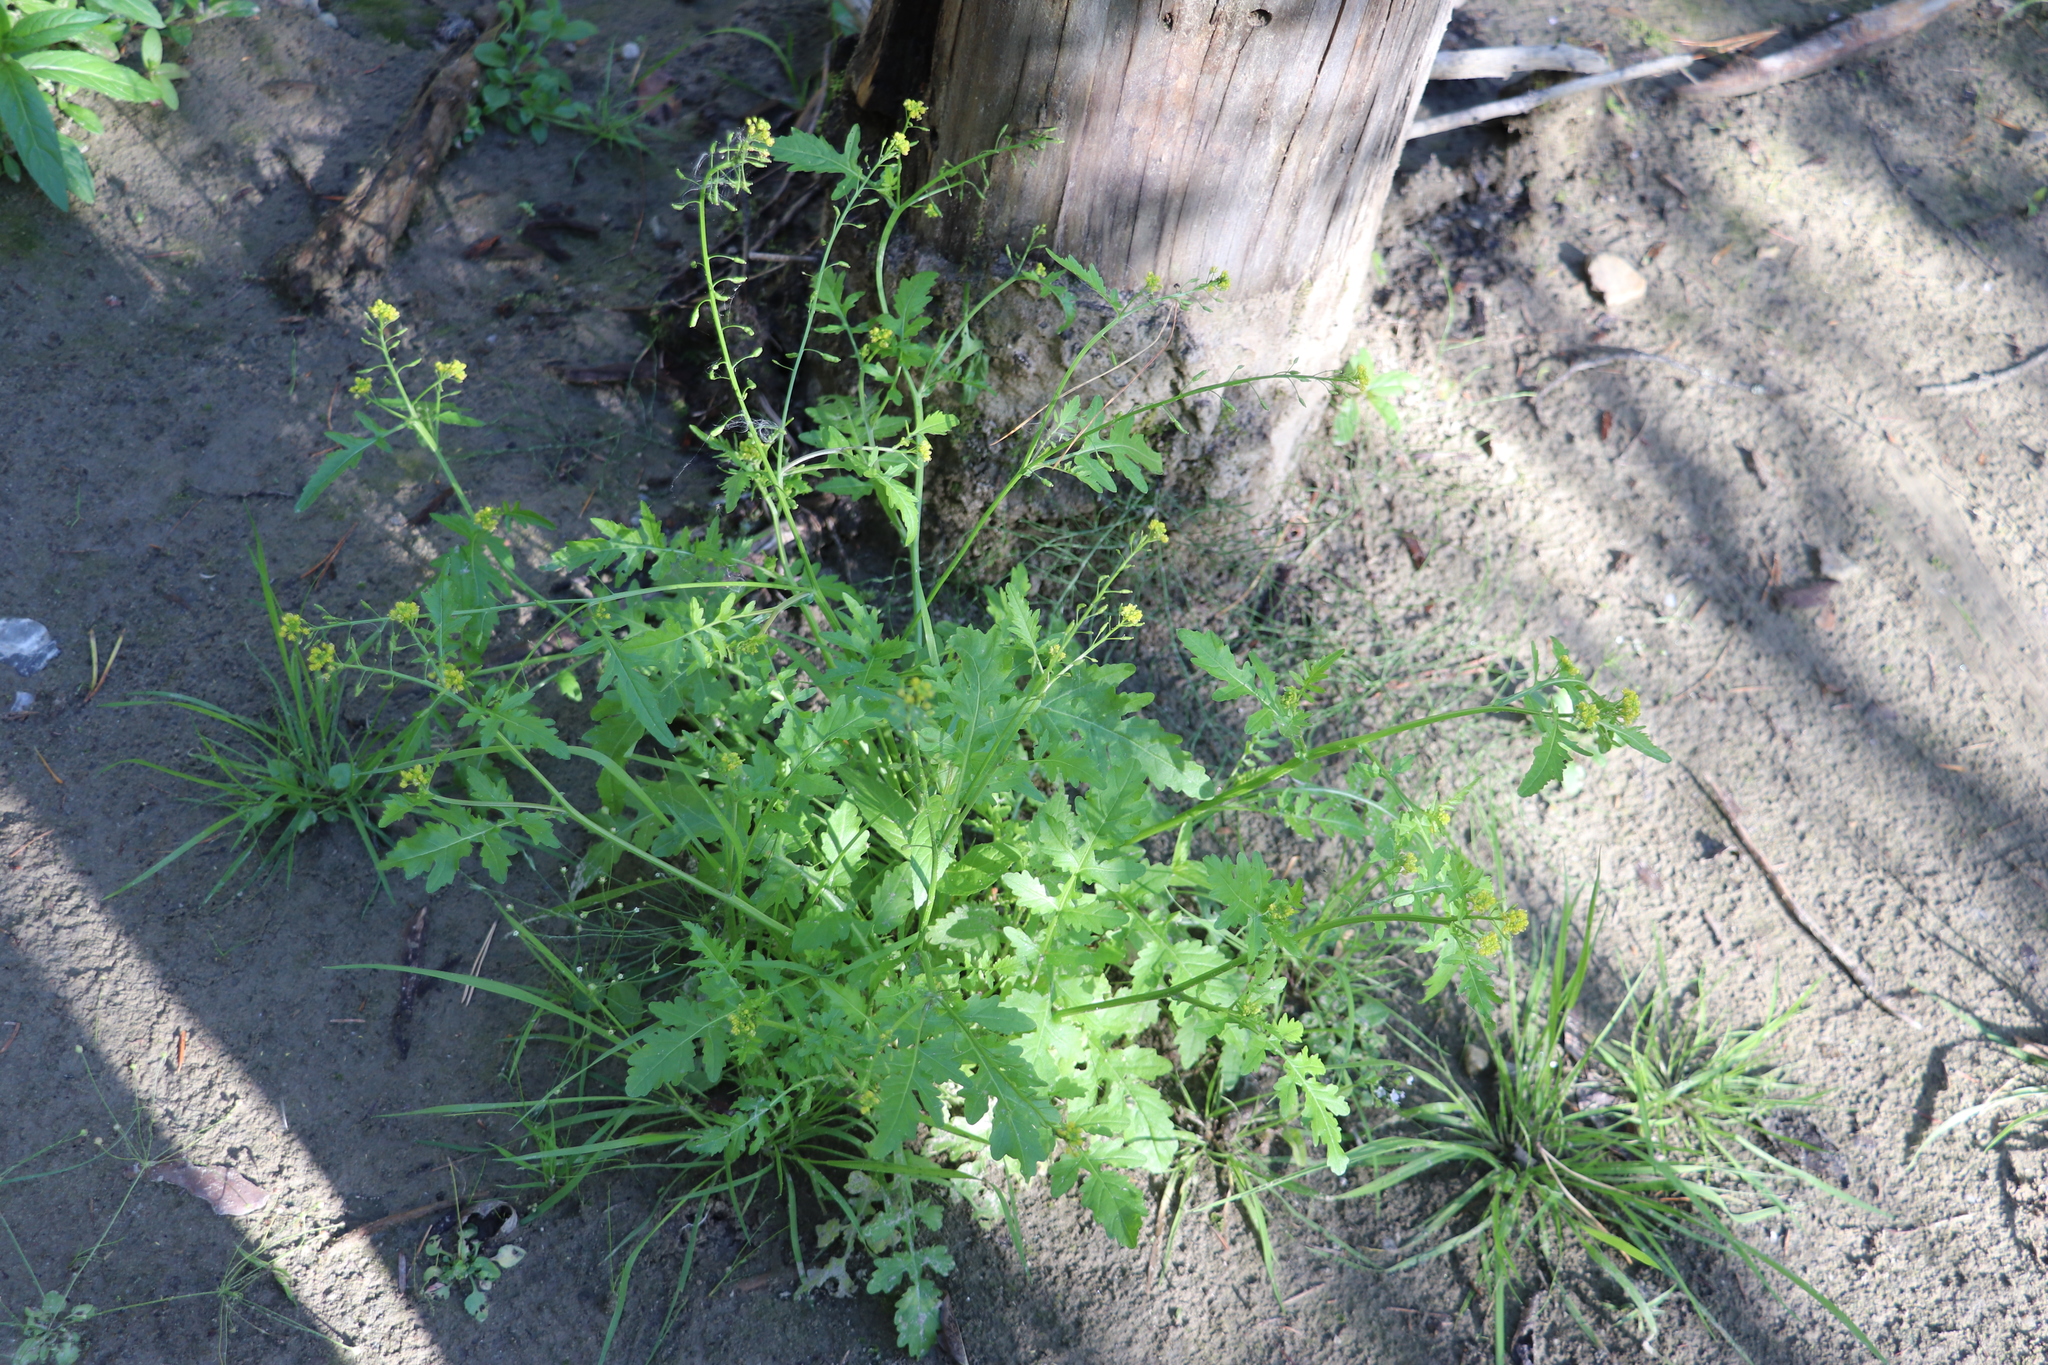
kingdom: Plantae
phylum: Tracheophyta
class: Magnoliopsida
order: Brassicales
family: Brassicaceae
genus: Rorippa
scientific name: Rorippa palustris
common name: Marsh yellow-cress
